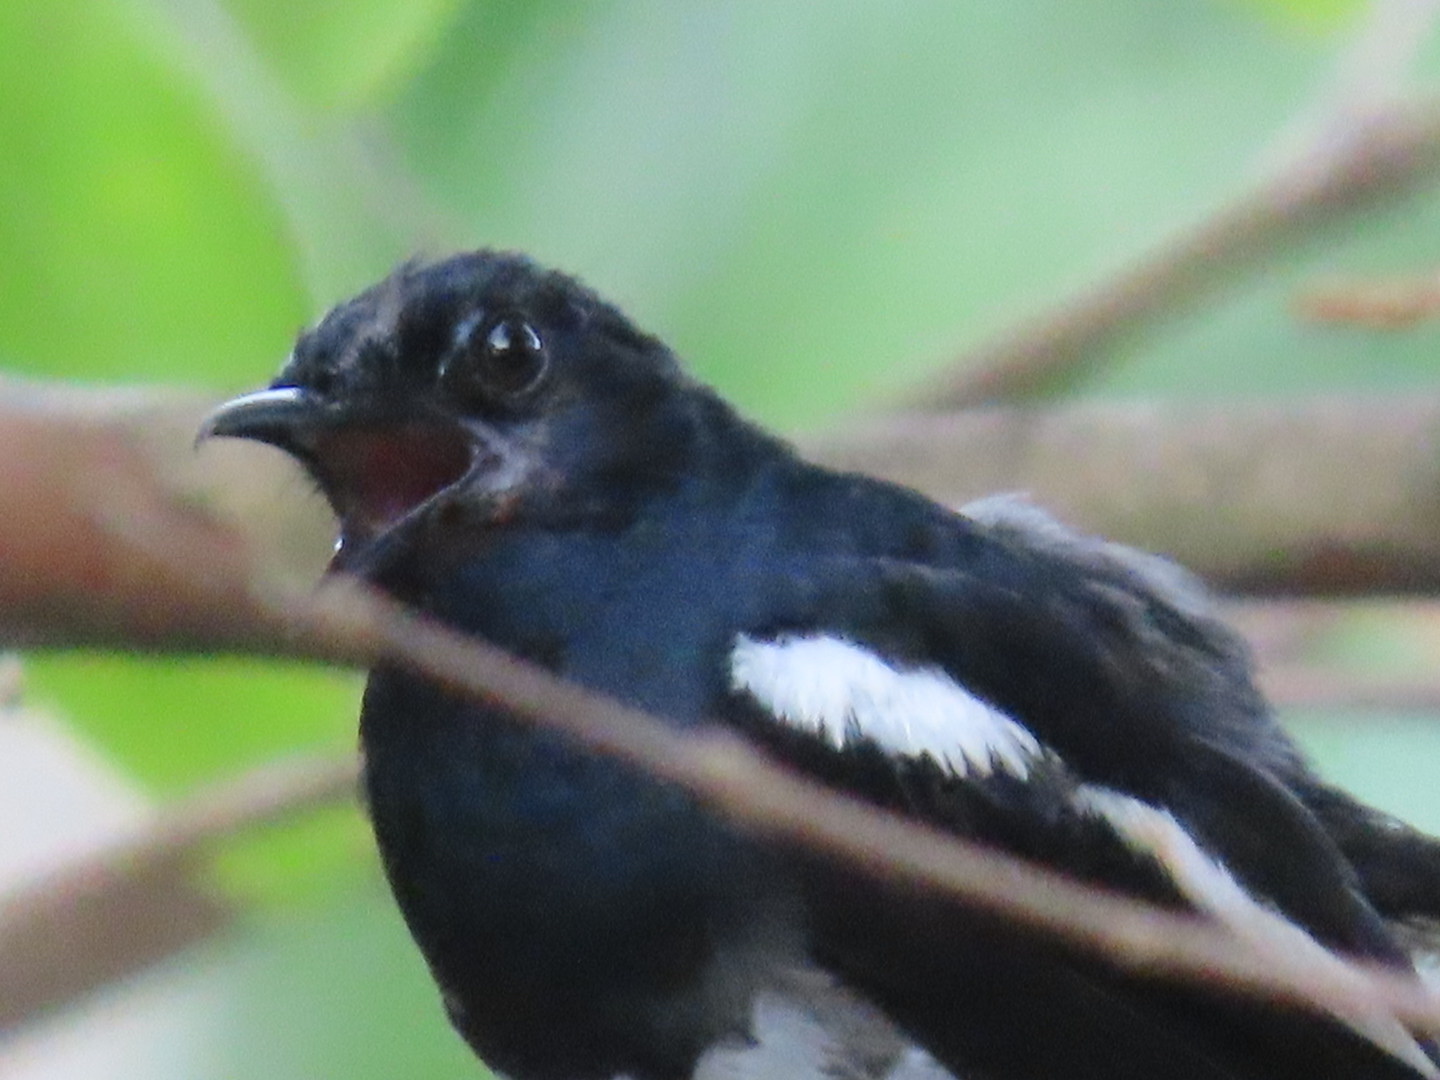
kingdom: Animalia
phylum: Chordata
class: Aves
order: Passeriformes
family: Muscicapidae
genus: Copsychus
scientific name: Copsychus saularis
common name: Oriental magpie-robin
